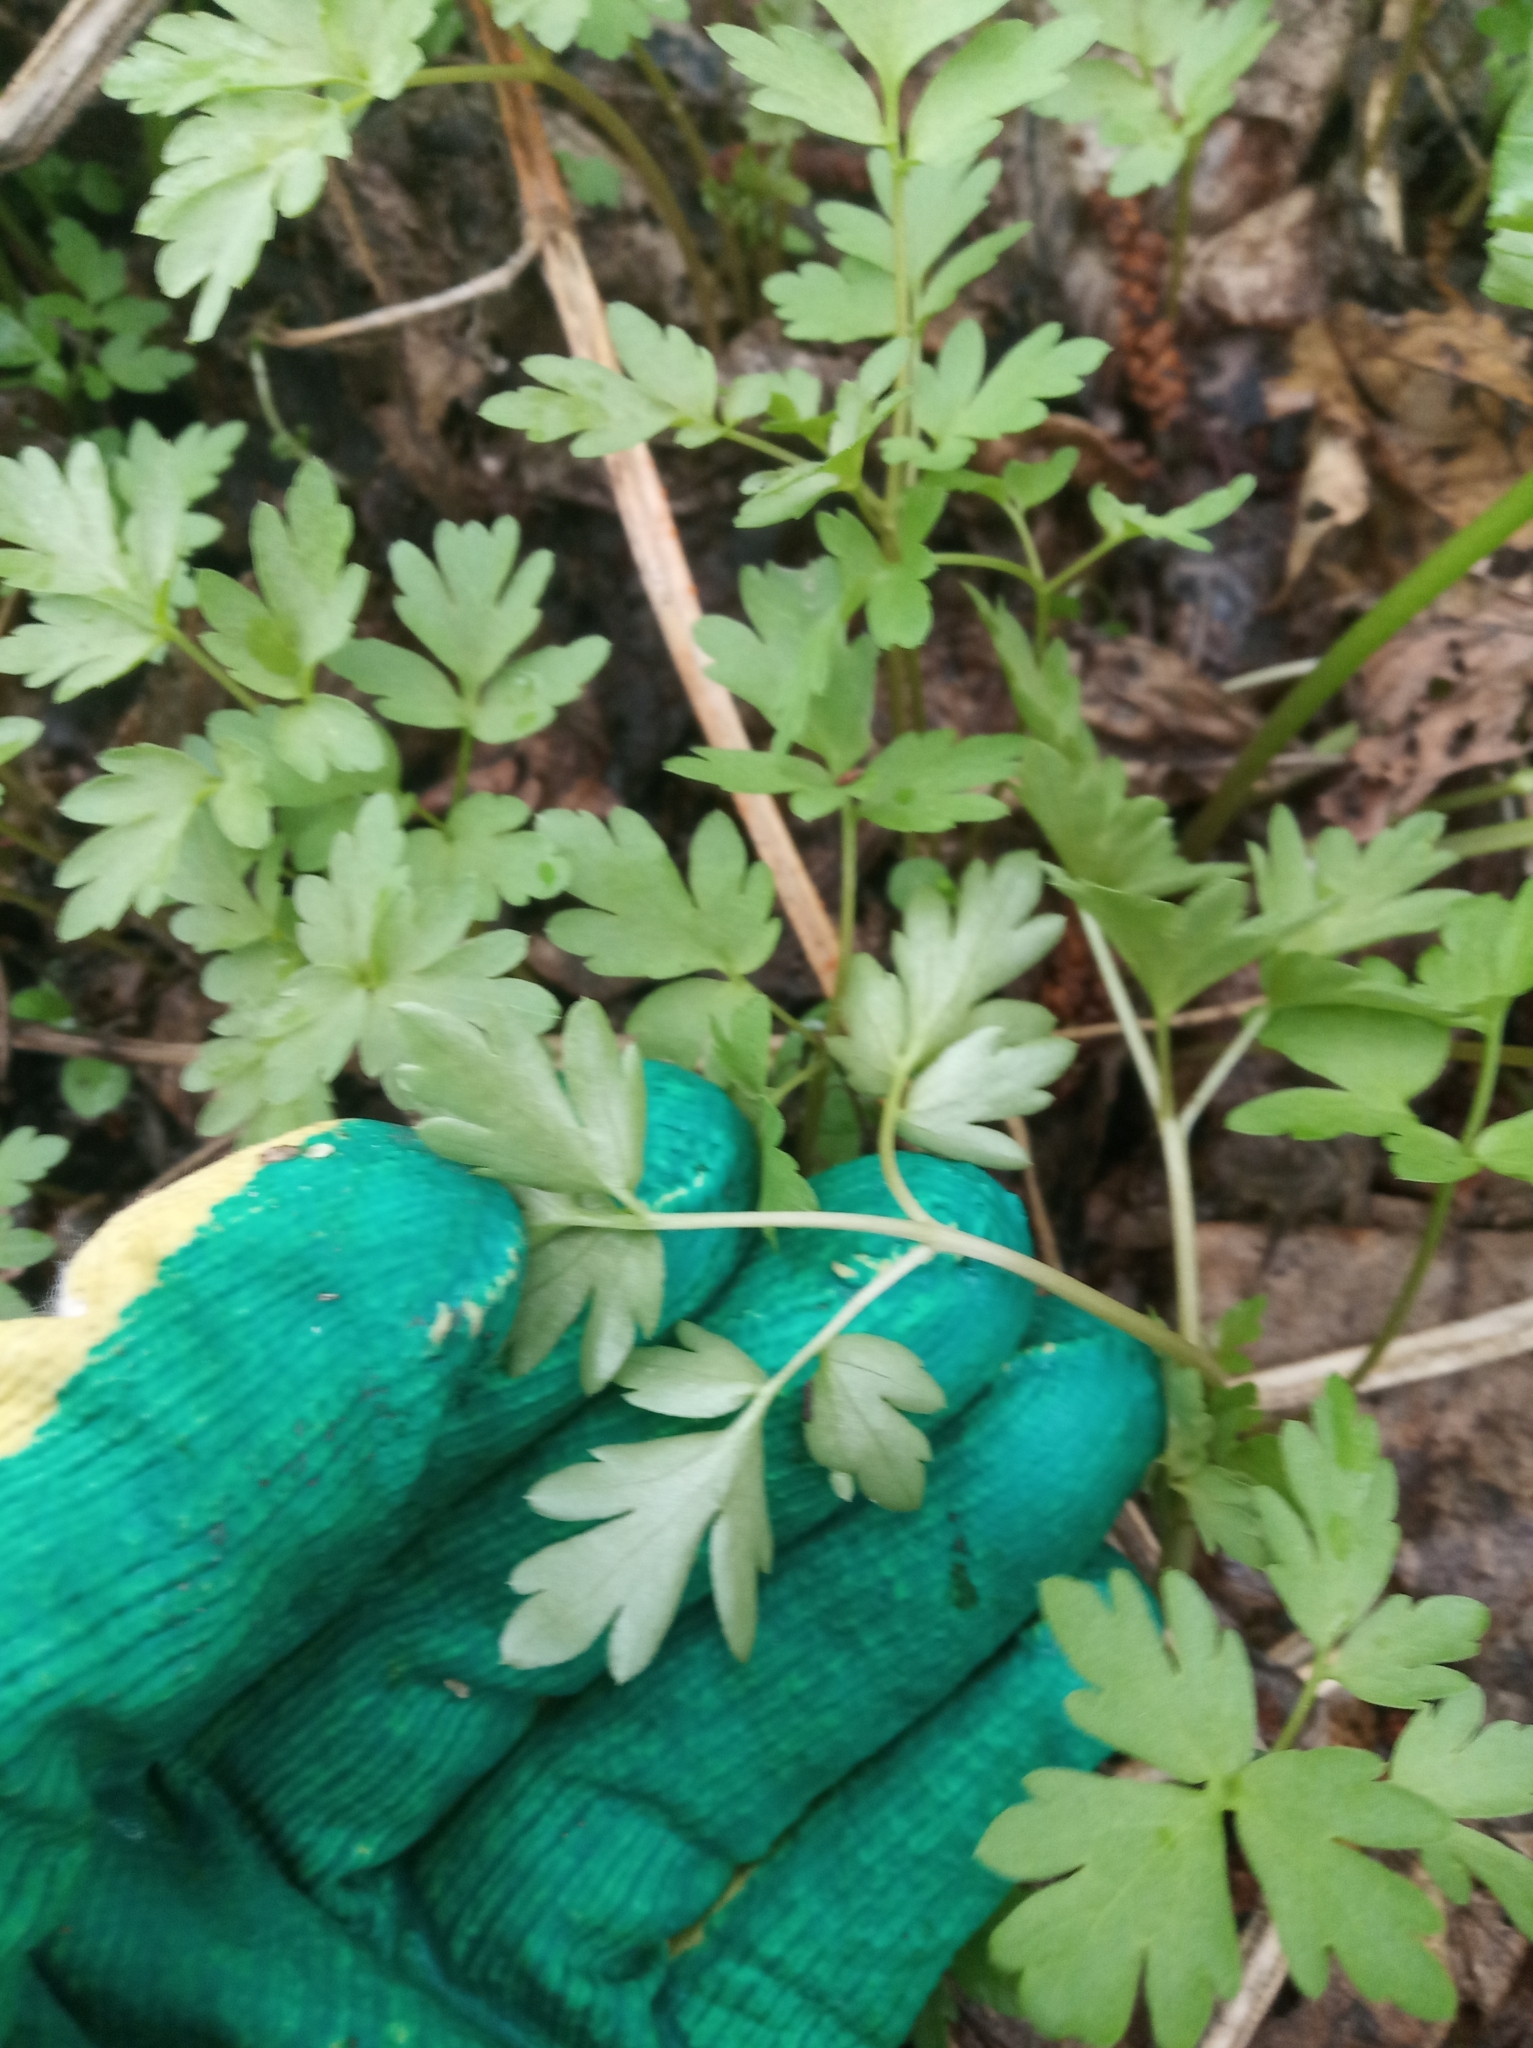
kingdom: Plantae
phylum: Tracheophyta
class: Magnoliopsida
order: Dipsacales
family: Viburnaceae
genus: Adoxa
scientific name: Adoxa moschatellina
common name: Moschatel
